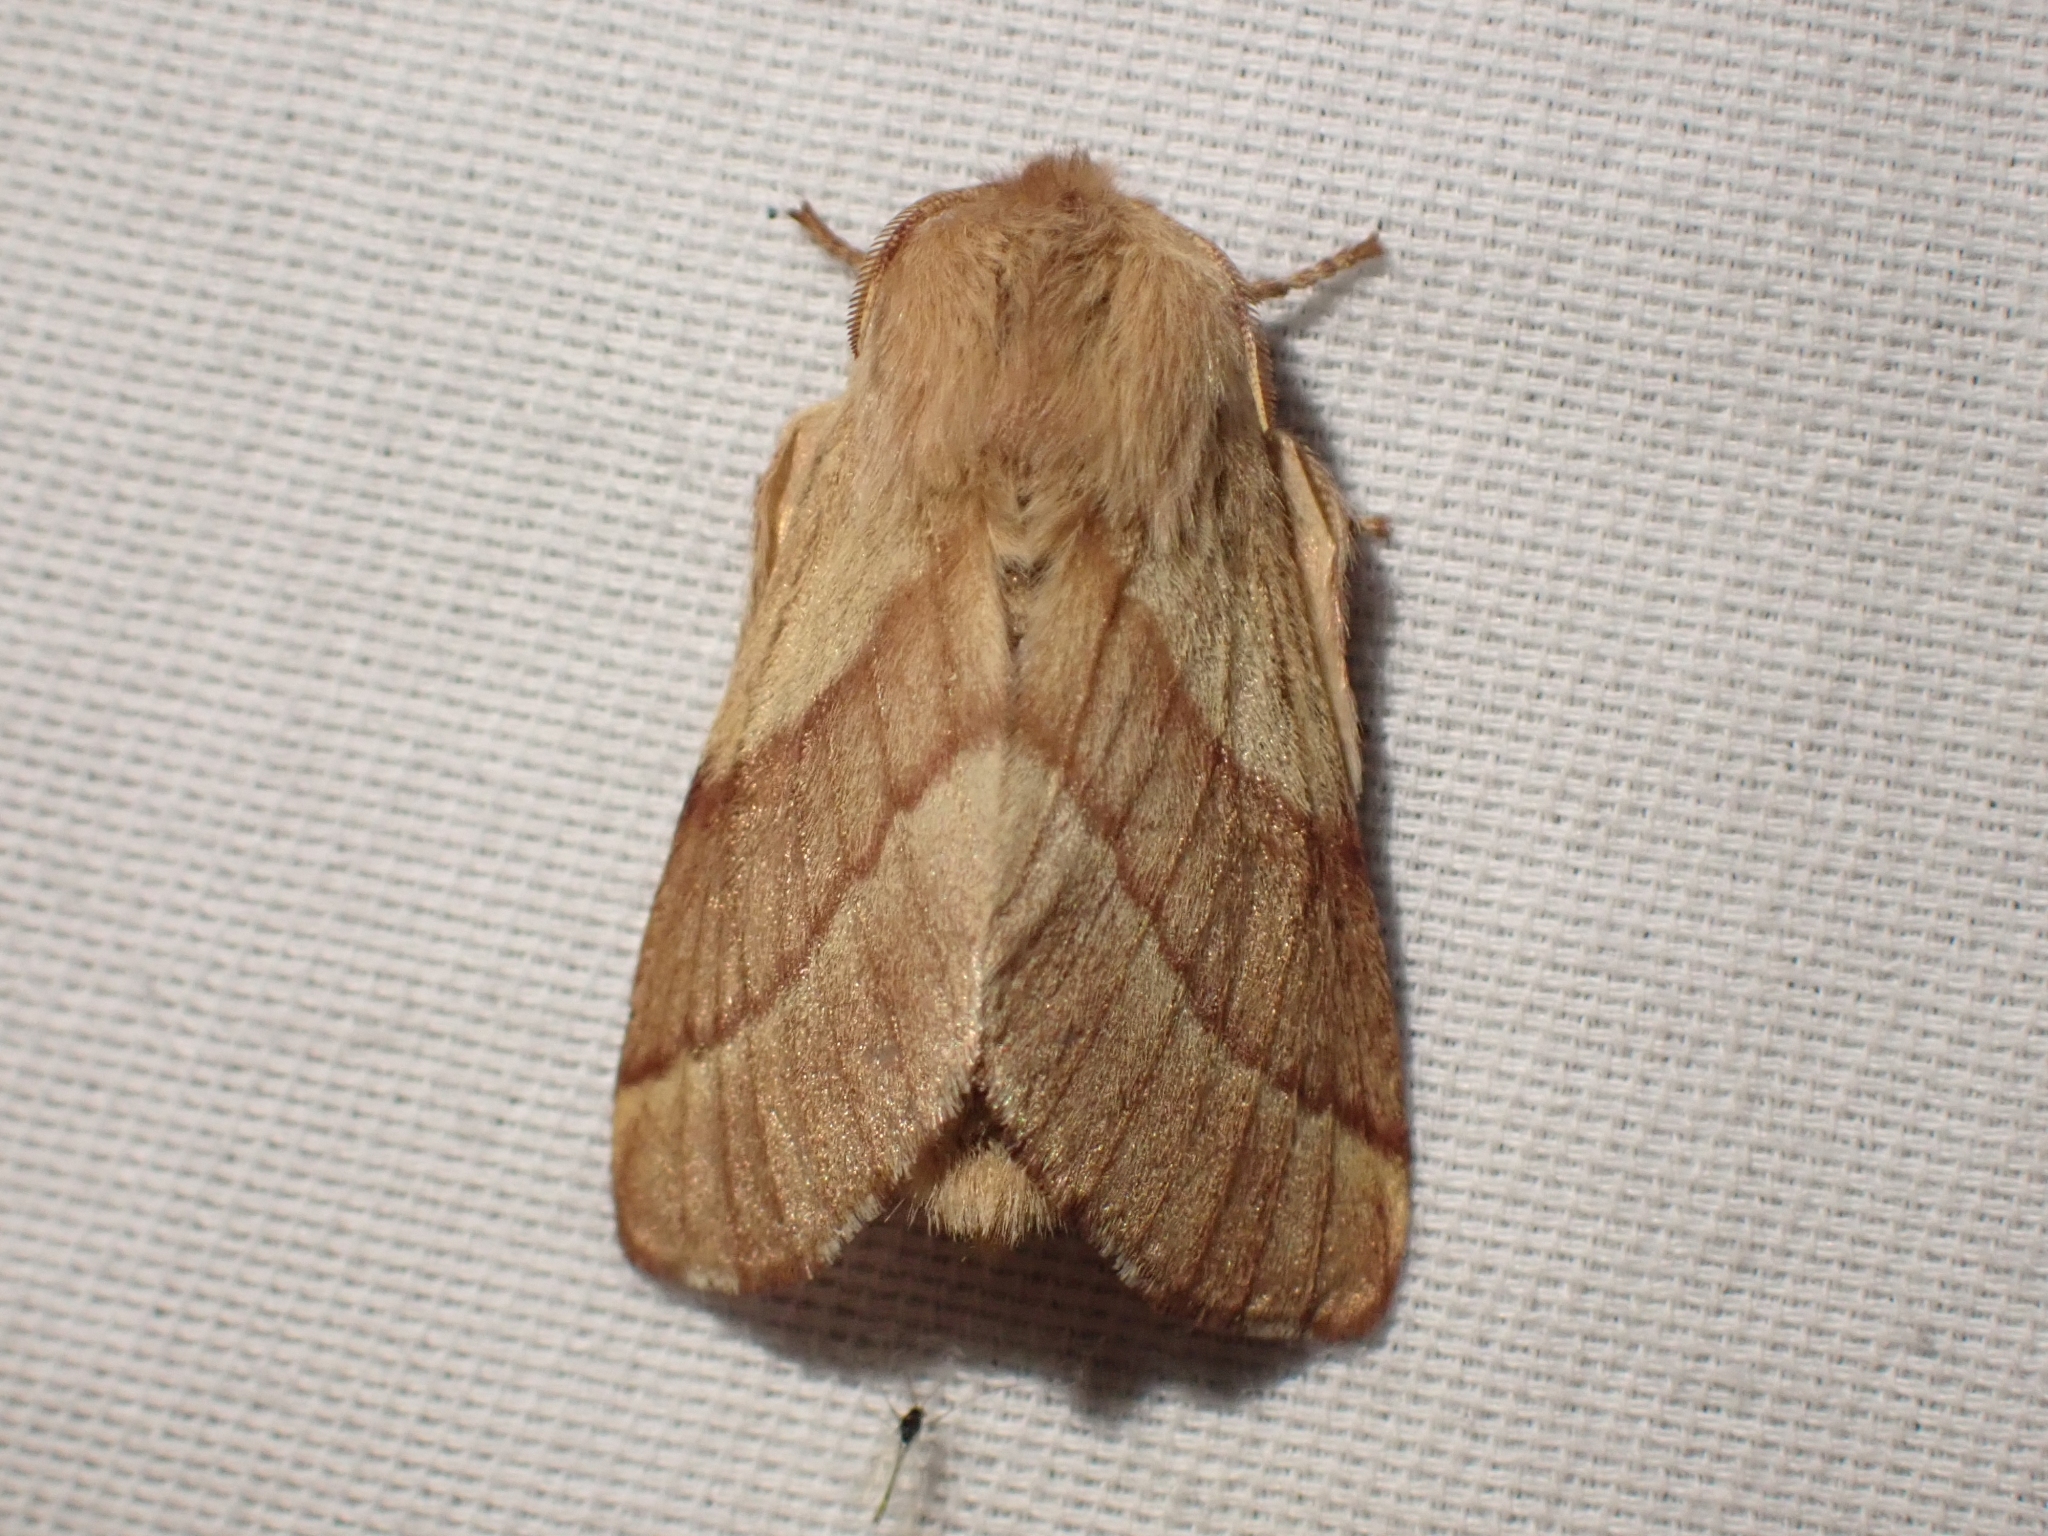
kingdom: Animalia
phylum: Arthropoda
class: Insecta
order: Lepidoptera
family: Lasiocampidae
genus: Malacosoma
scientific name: Malacosoma disstria
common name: Forest tent caterpillar
